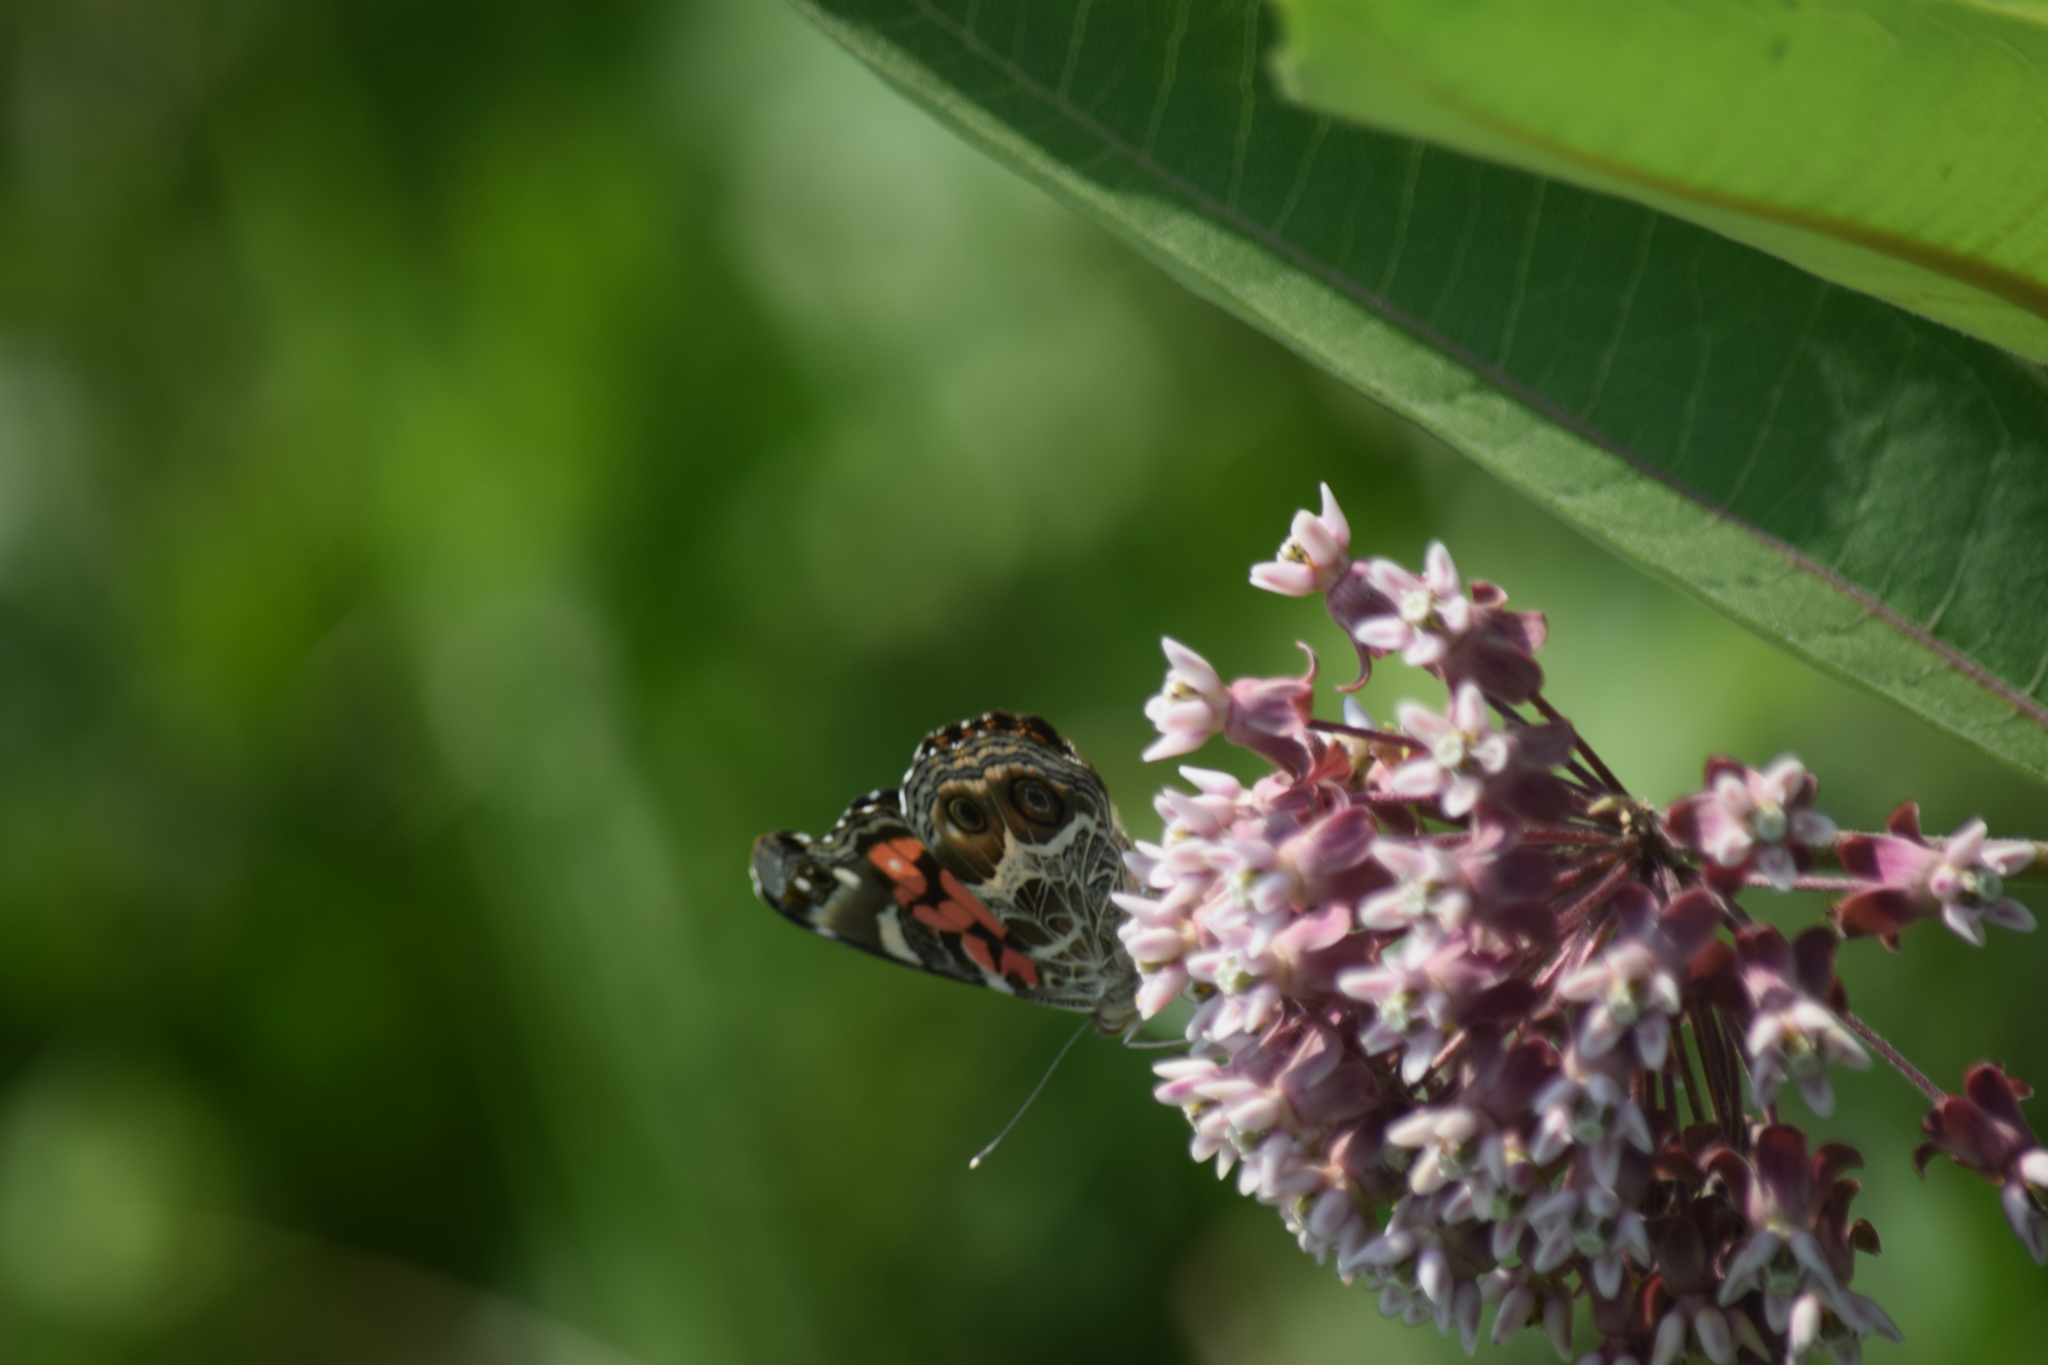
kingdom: Animalia
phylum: Arthropoda
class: Insecta
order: Lepidoptera
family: Nymphalidae
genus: Vanessa
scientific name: Vanessa virginiensis
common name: American lady
